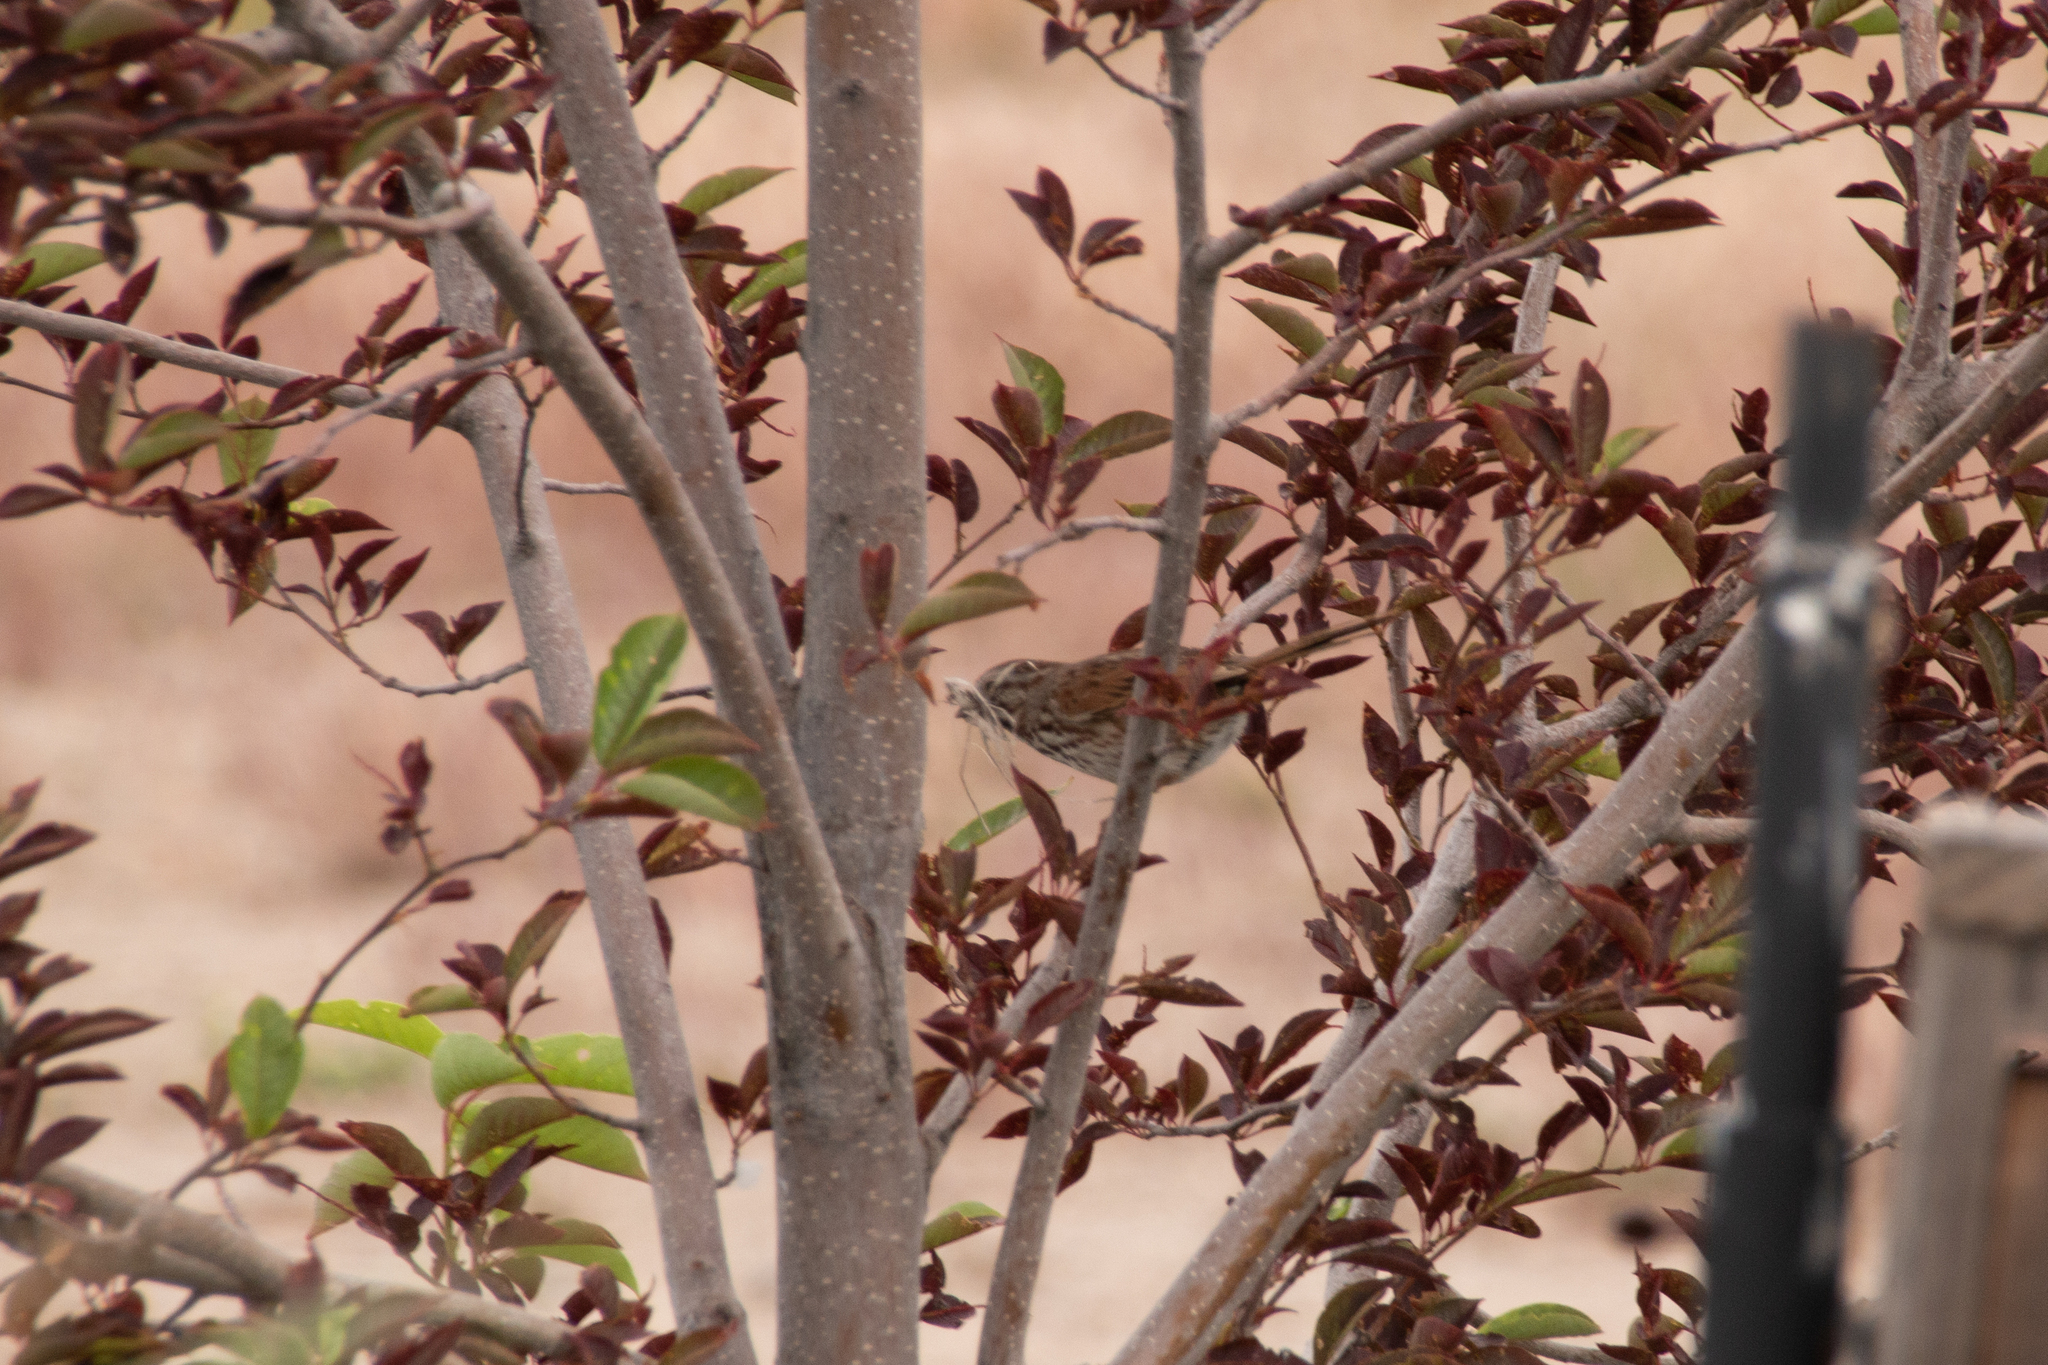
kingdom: Animalia
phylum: Chordata
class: Aves
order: Passeriformes
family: Passerellidae
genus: Melospiza
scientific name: Melospiza melodia
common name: Song sparrow
